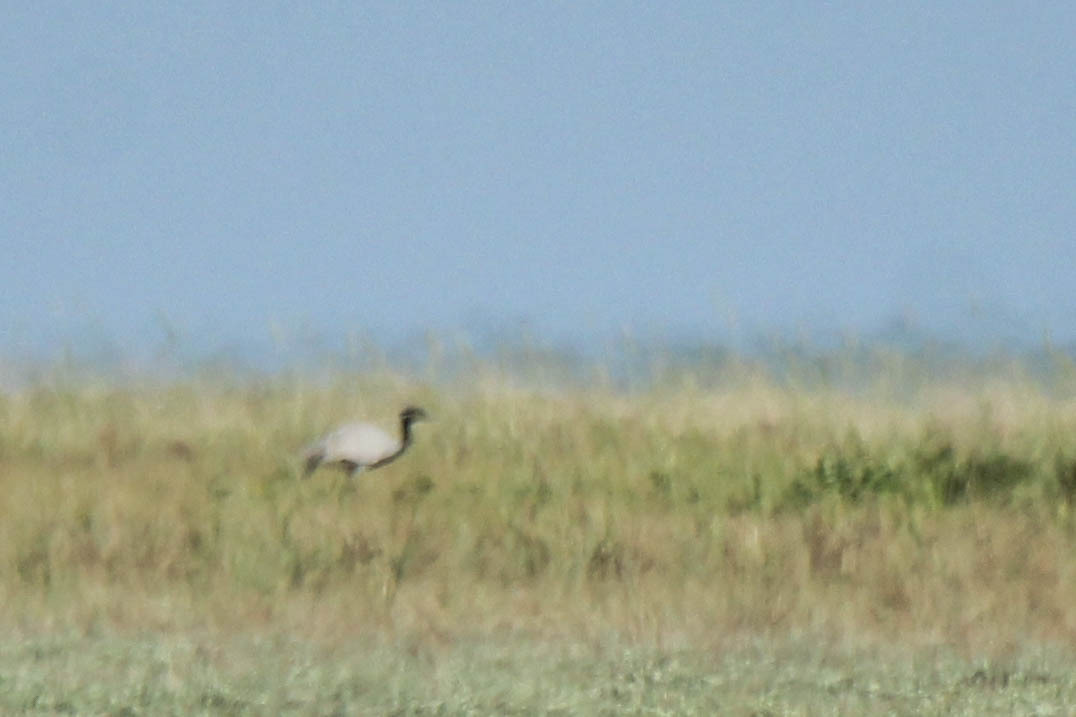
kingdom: Animalia
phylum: Chordata
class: Aves
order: Gruiformes
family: Gruidae
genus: Anthropoides
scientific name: Anthropoides virgo
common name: Demoiselle crane
